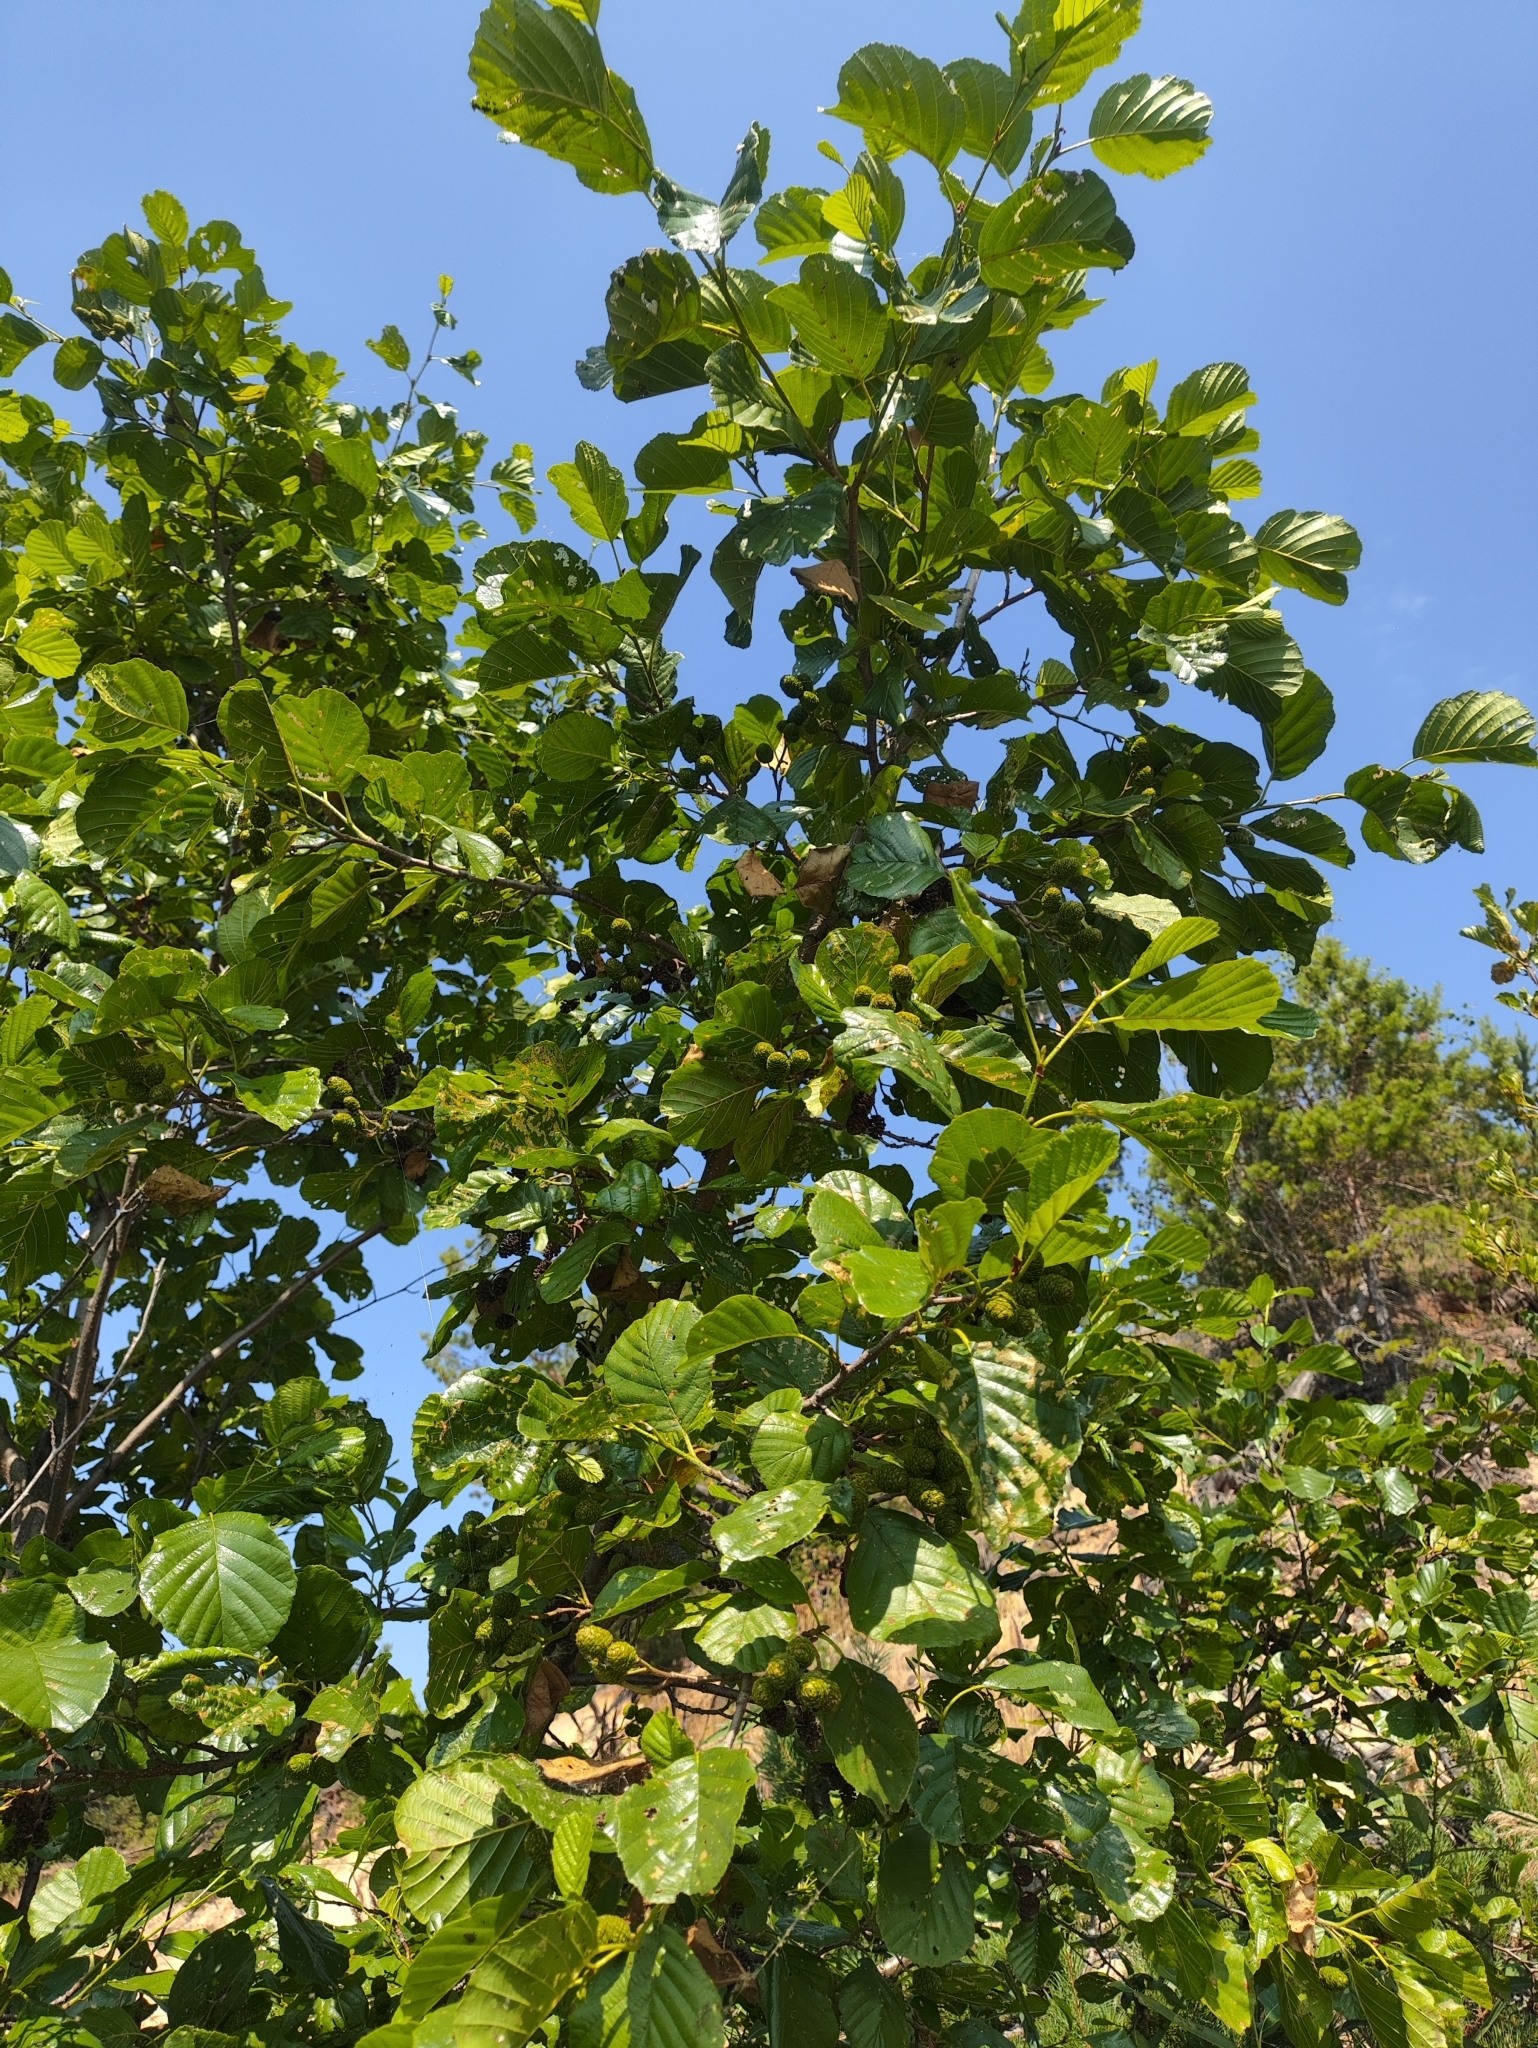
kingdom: Plantae
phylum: Tracheophyta
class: Magnoliopsida
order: Fagales
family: Betulaceae
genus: Alnus
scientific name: Alnus glutinosa
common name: Black alder
